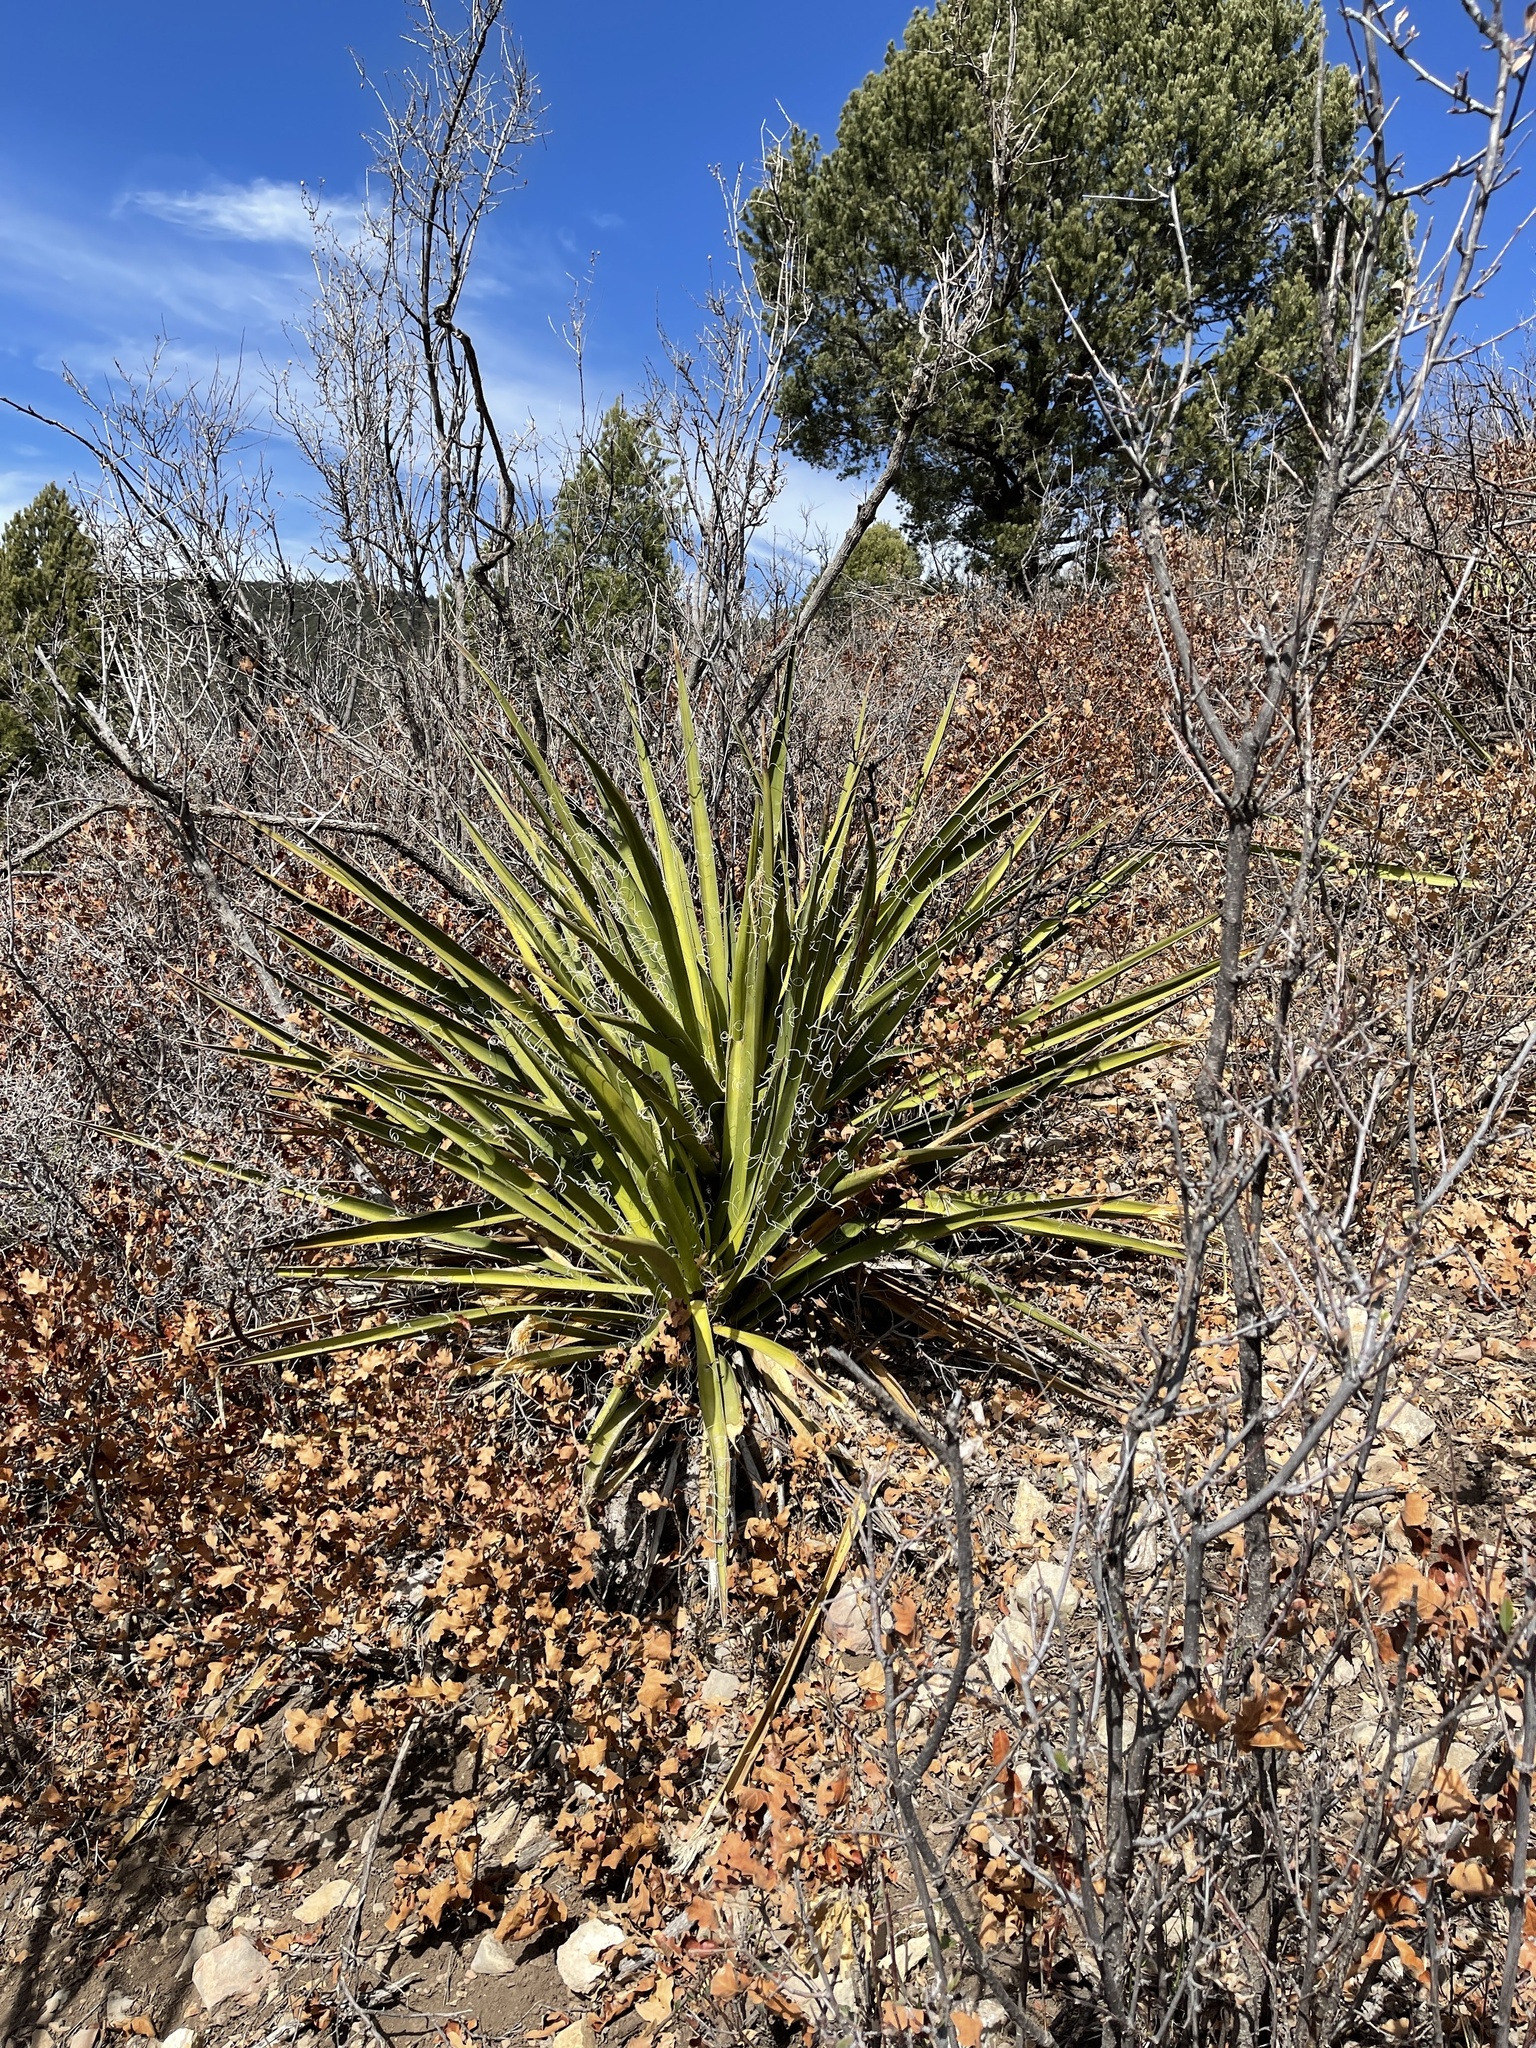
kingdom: Plantae
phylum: Tracheophyta
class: Liliopsida
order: Asparagales
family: Asparagaceae
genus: Yucca
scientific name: Yucca baccata
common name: Banana yucca
